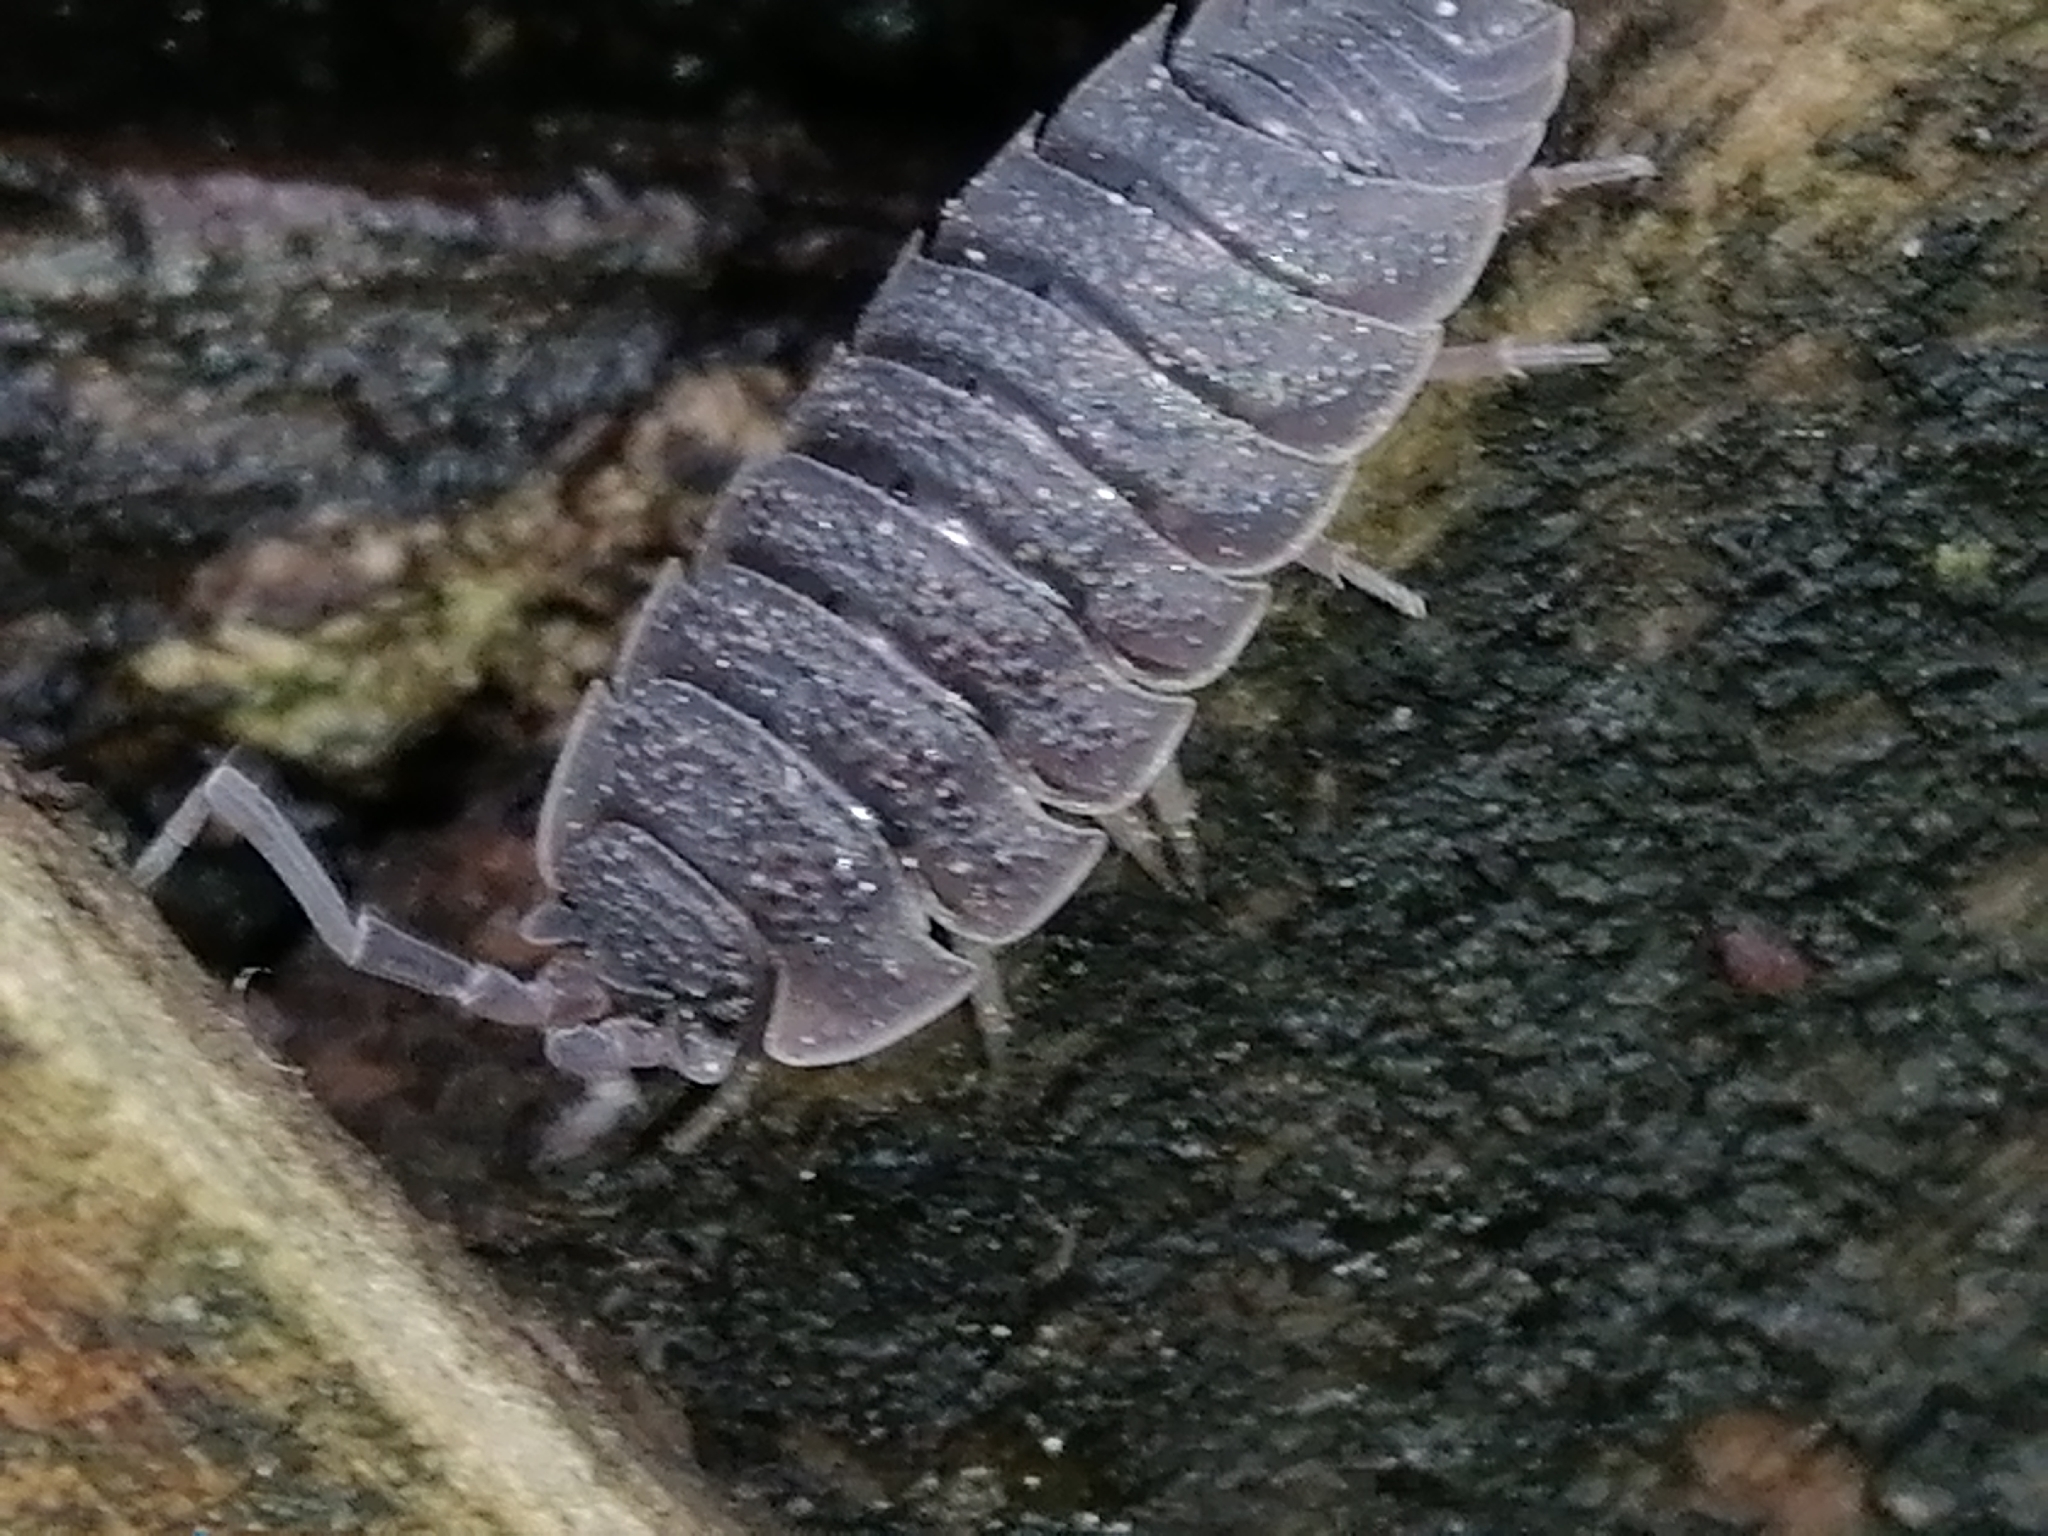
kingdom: Animalia
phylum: Arthropoda
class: Malacostraca
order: Isopoda
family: Porcellionidae
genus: Porcellio
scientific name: Porcellio scaber
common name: Common rough woodlouse
